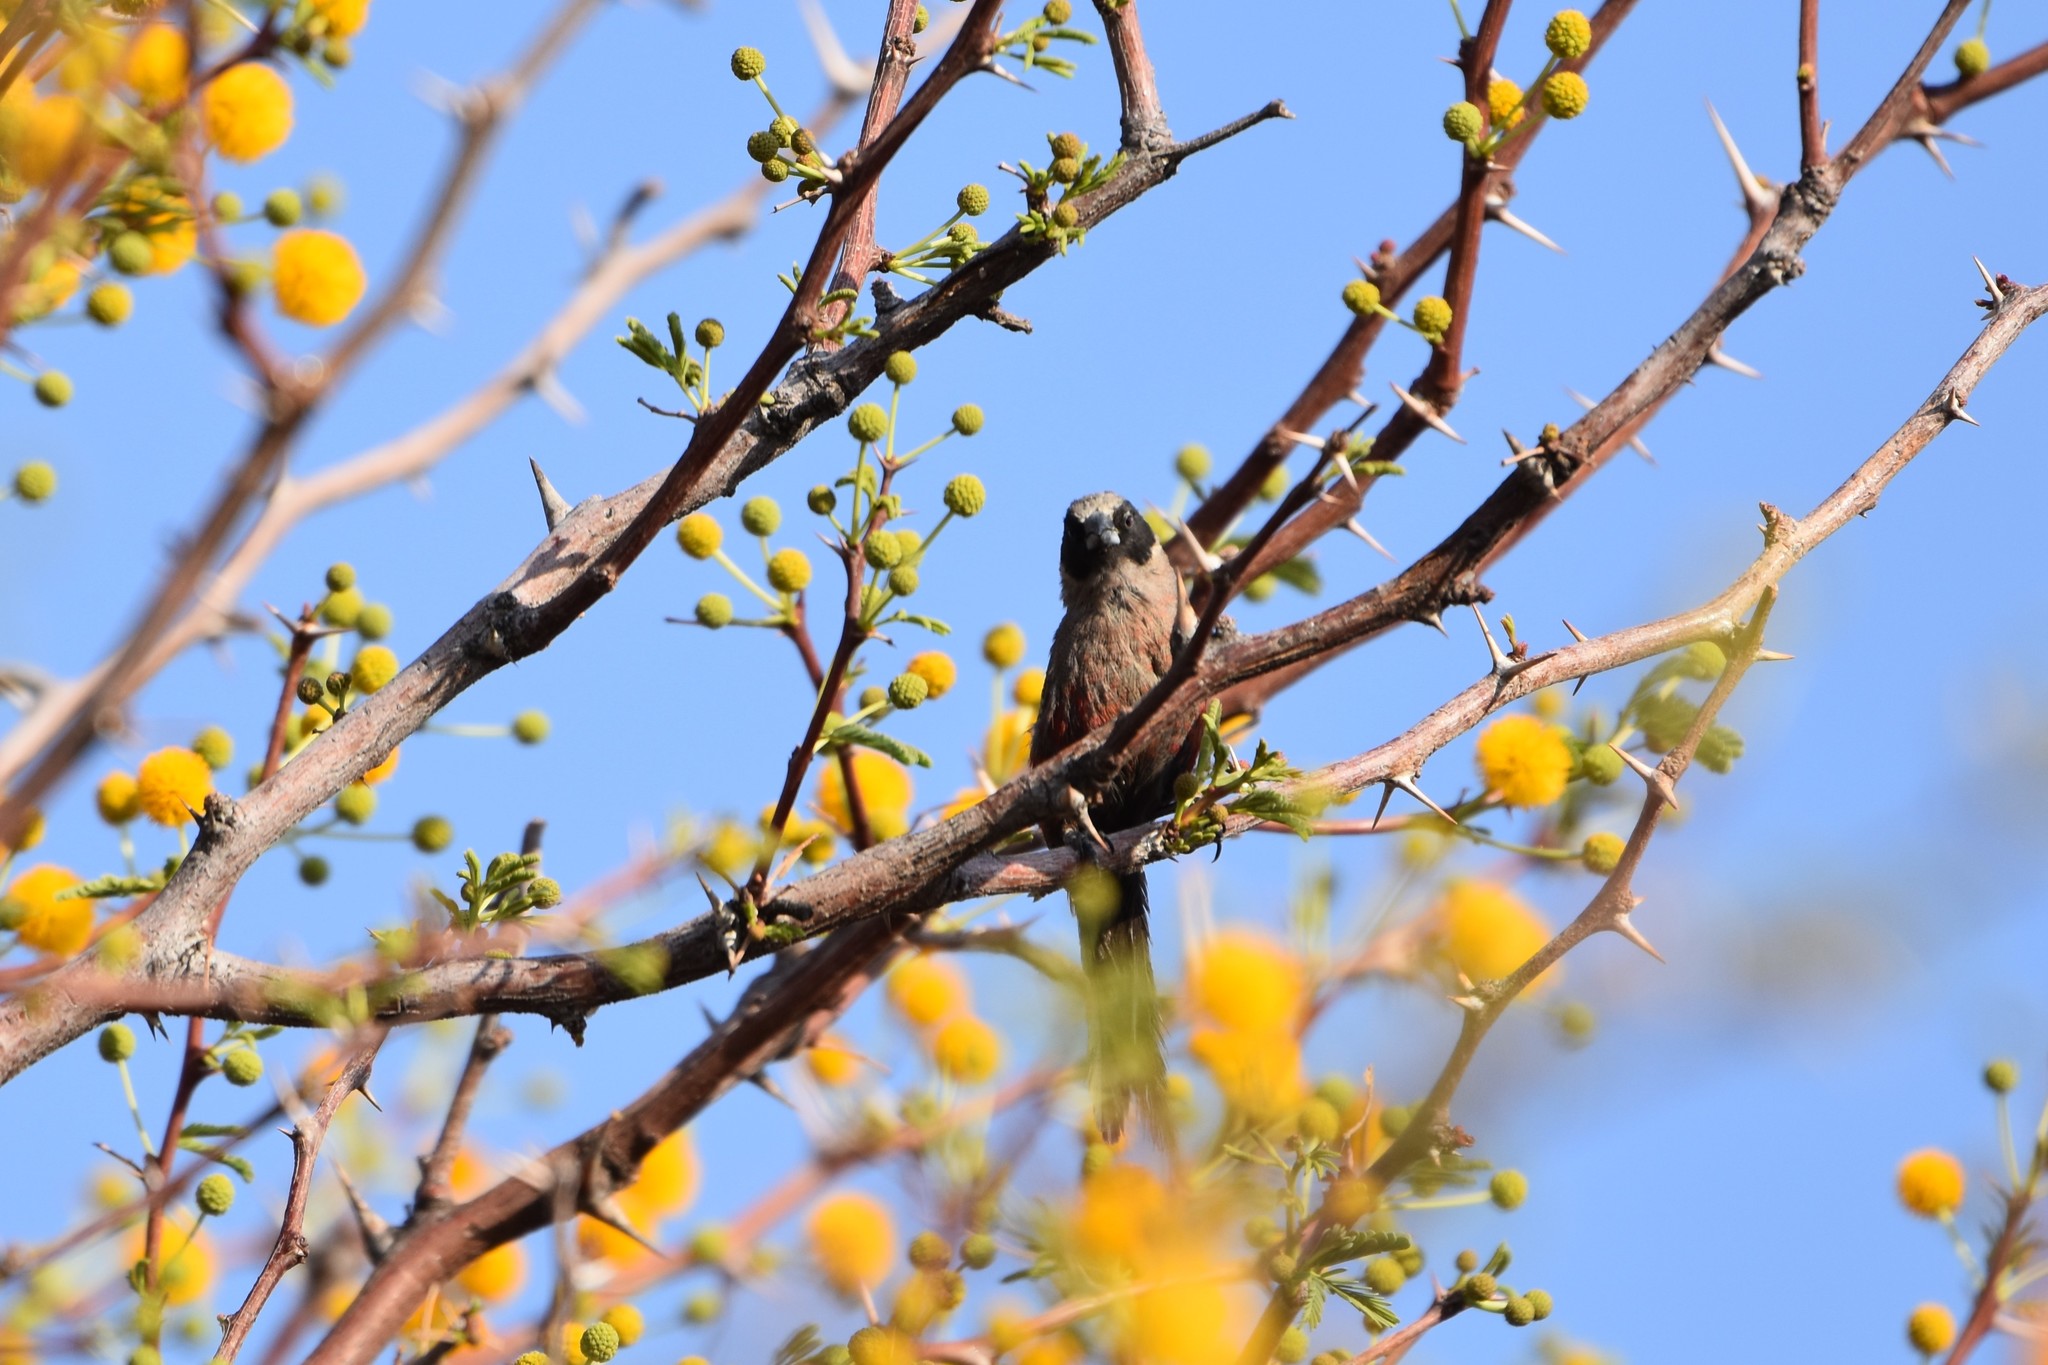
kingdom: Animalia
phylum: Chordata
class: Aves
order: Passeriformes
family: Estrildidae
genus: Estrilda
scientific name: Estrilda erythronotos
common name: Black-faced waxbill
